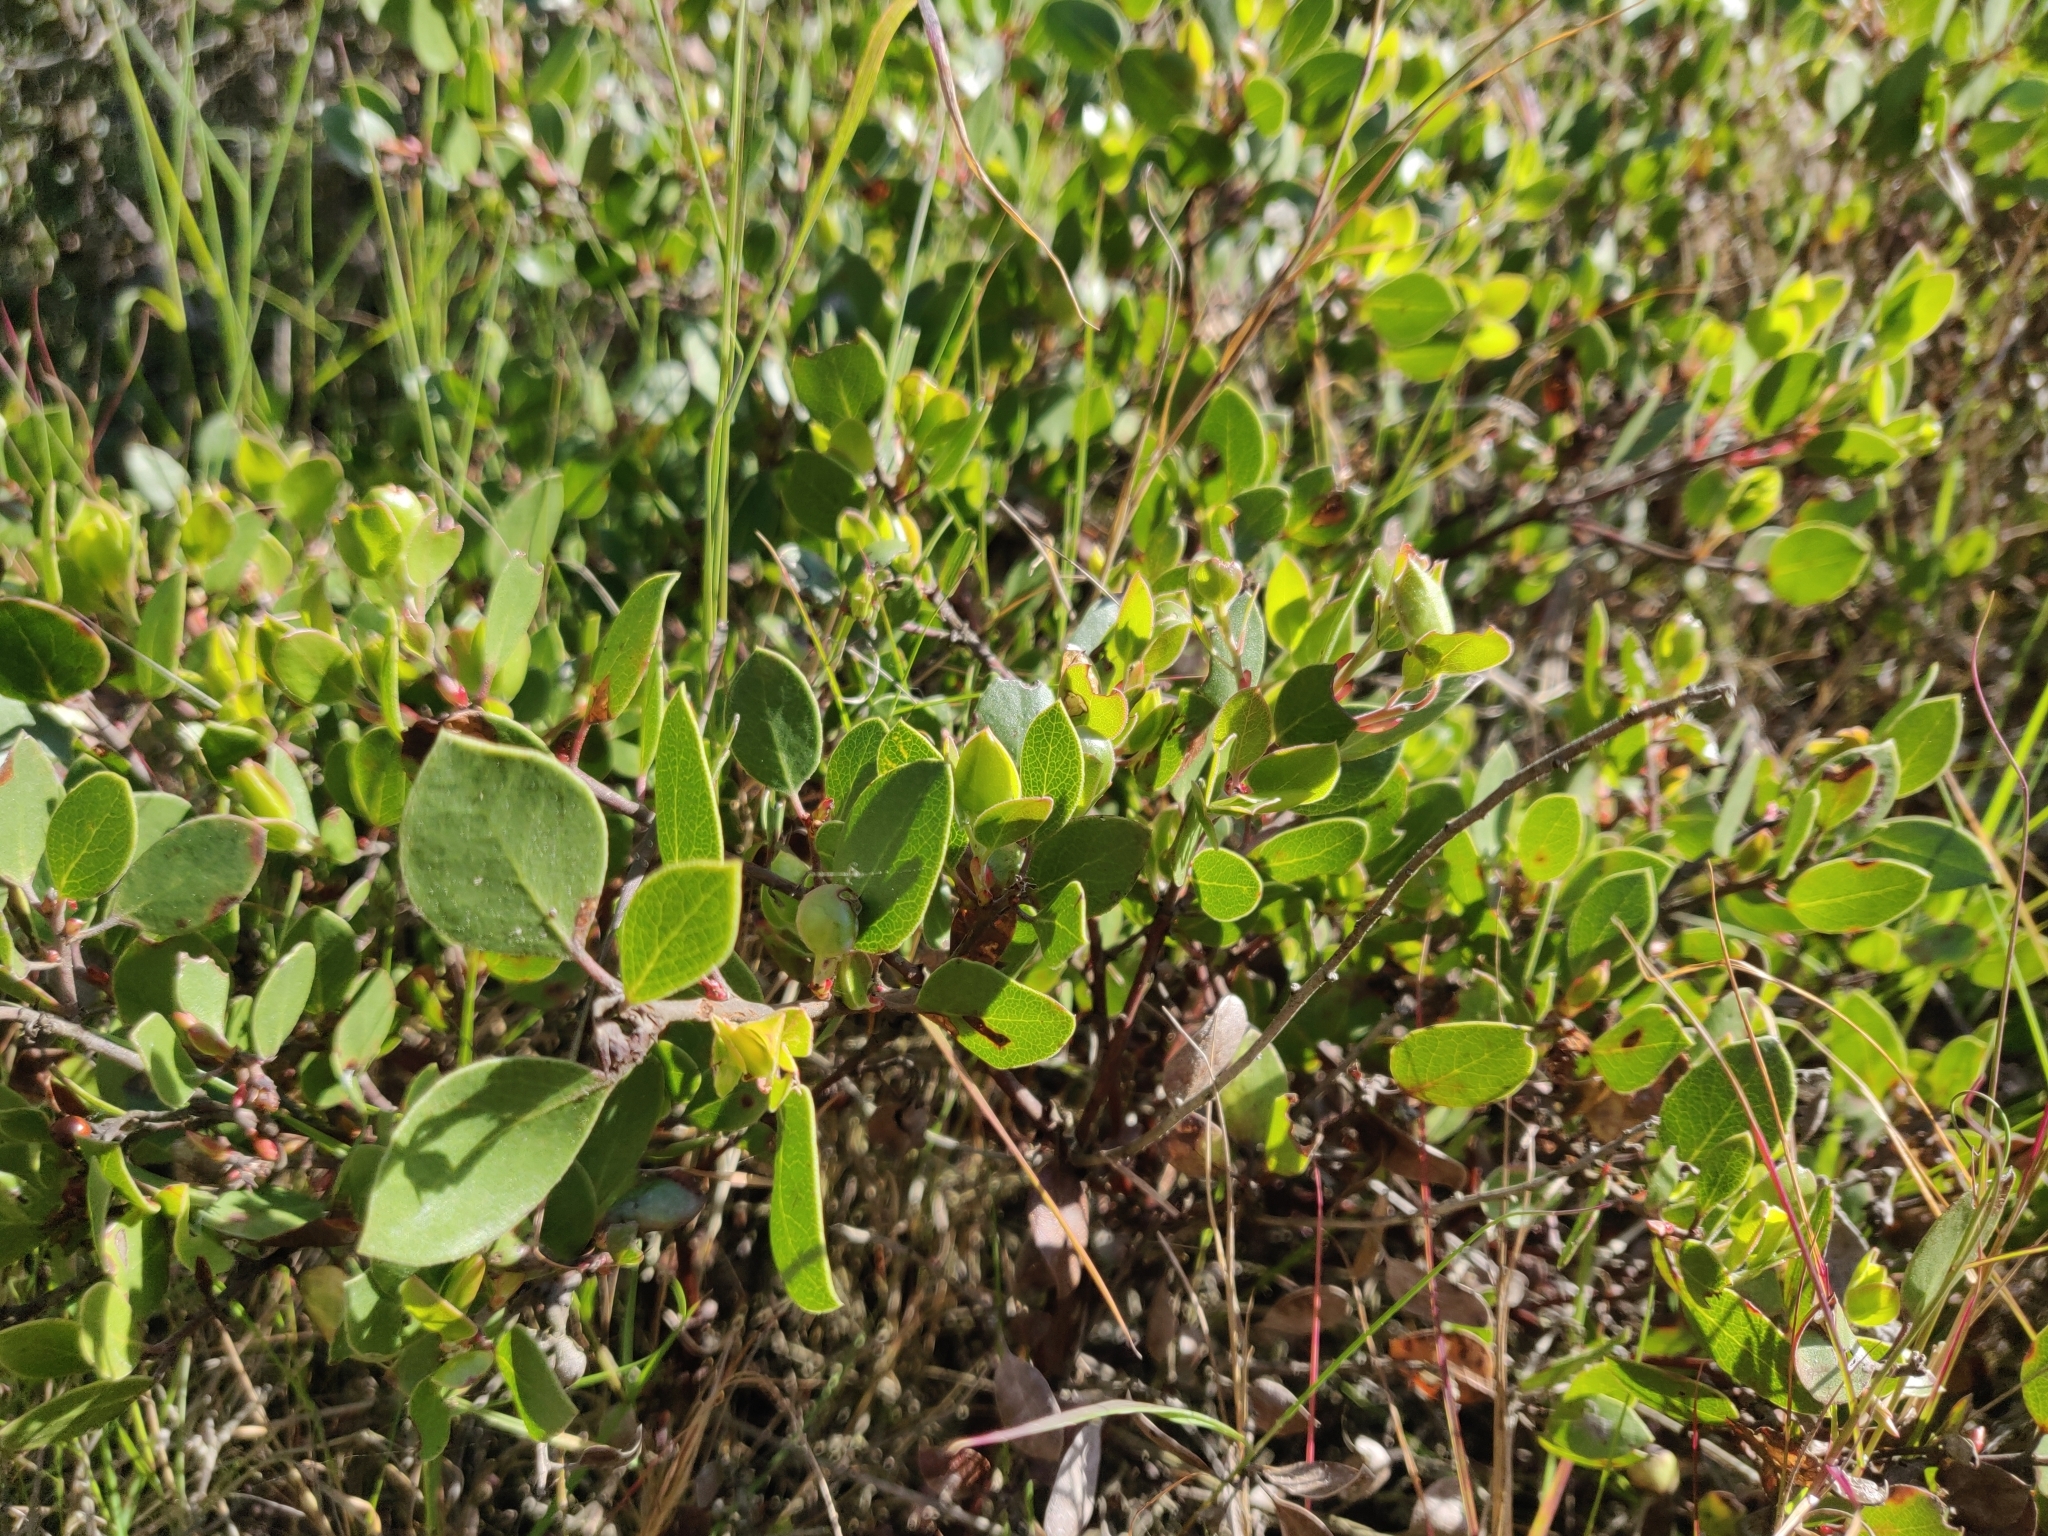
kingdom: Plantae
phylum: Tracheophyta
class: Magnoliopsida
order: Ericales
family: Ericaceae
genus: Arctostaphylos
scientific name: Arctostaphylos hookeri
